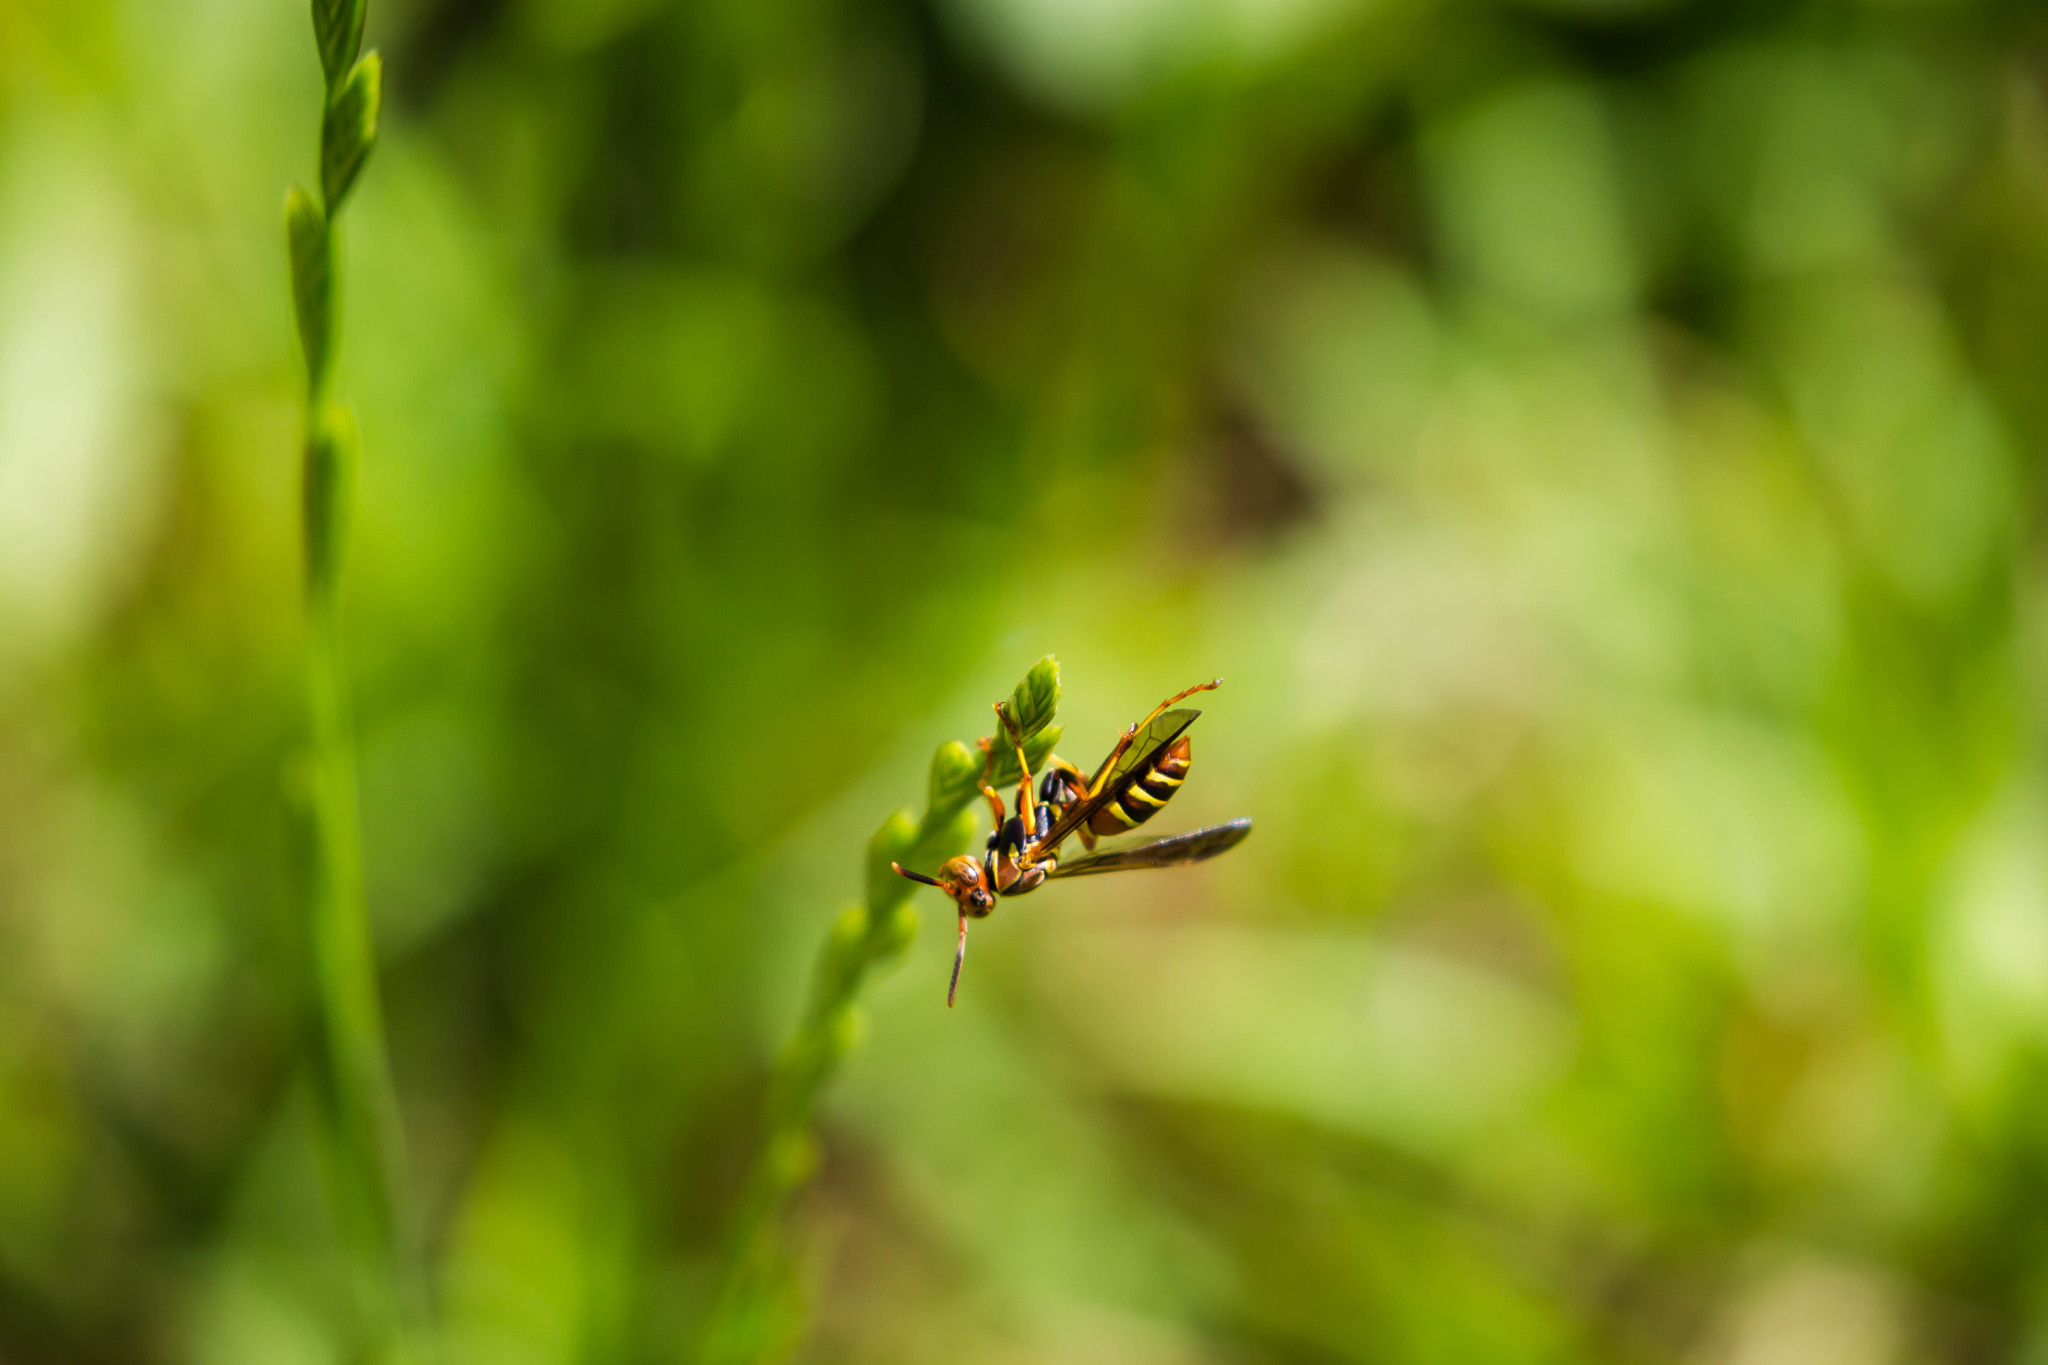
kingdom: Animalia
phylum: Arthropoda
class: Insecta
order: Hymenoptera
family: Eumenidae
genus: Polistes
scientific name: Polistes dorsalis
